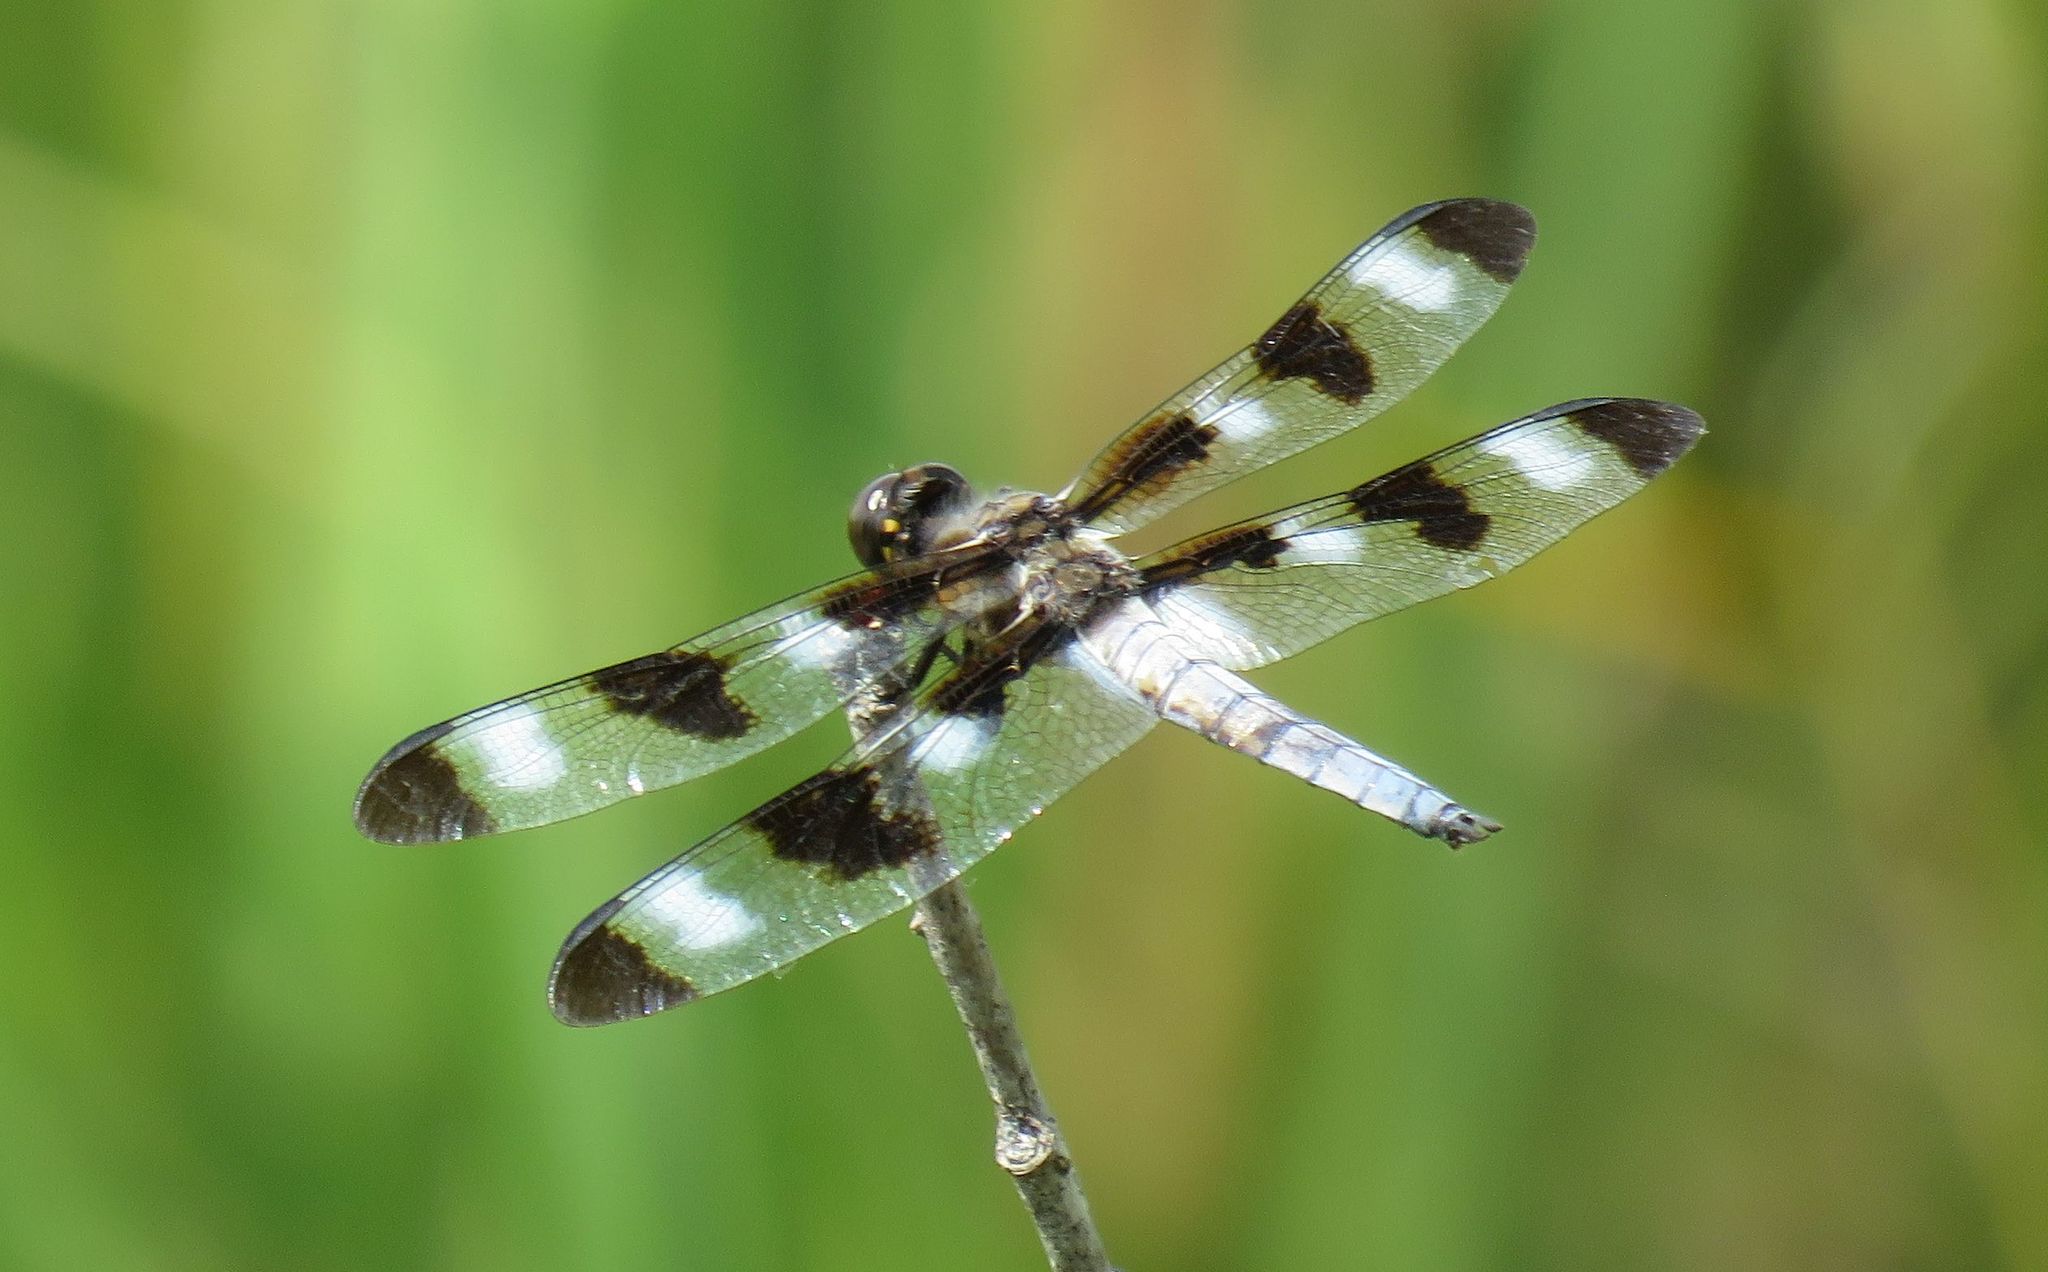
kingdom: Animalia
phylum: Arthropoda
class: Insecta
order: Odonata
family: Libellulidae
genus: Libellula
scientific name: Libellula pulchella
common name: Twelve-spotted skimmer
